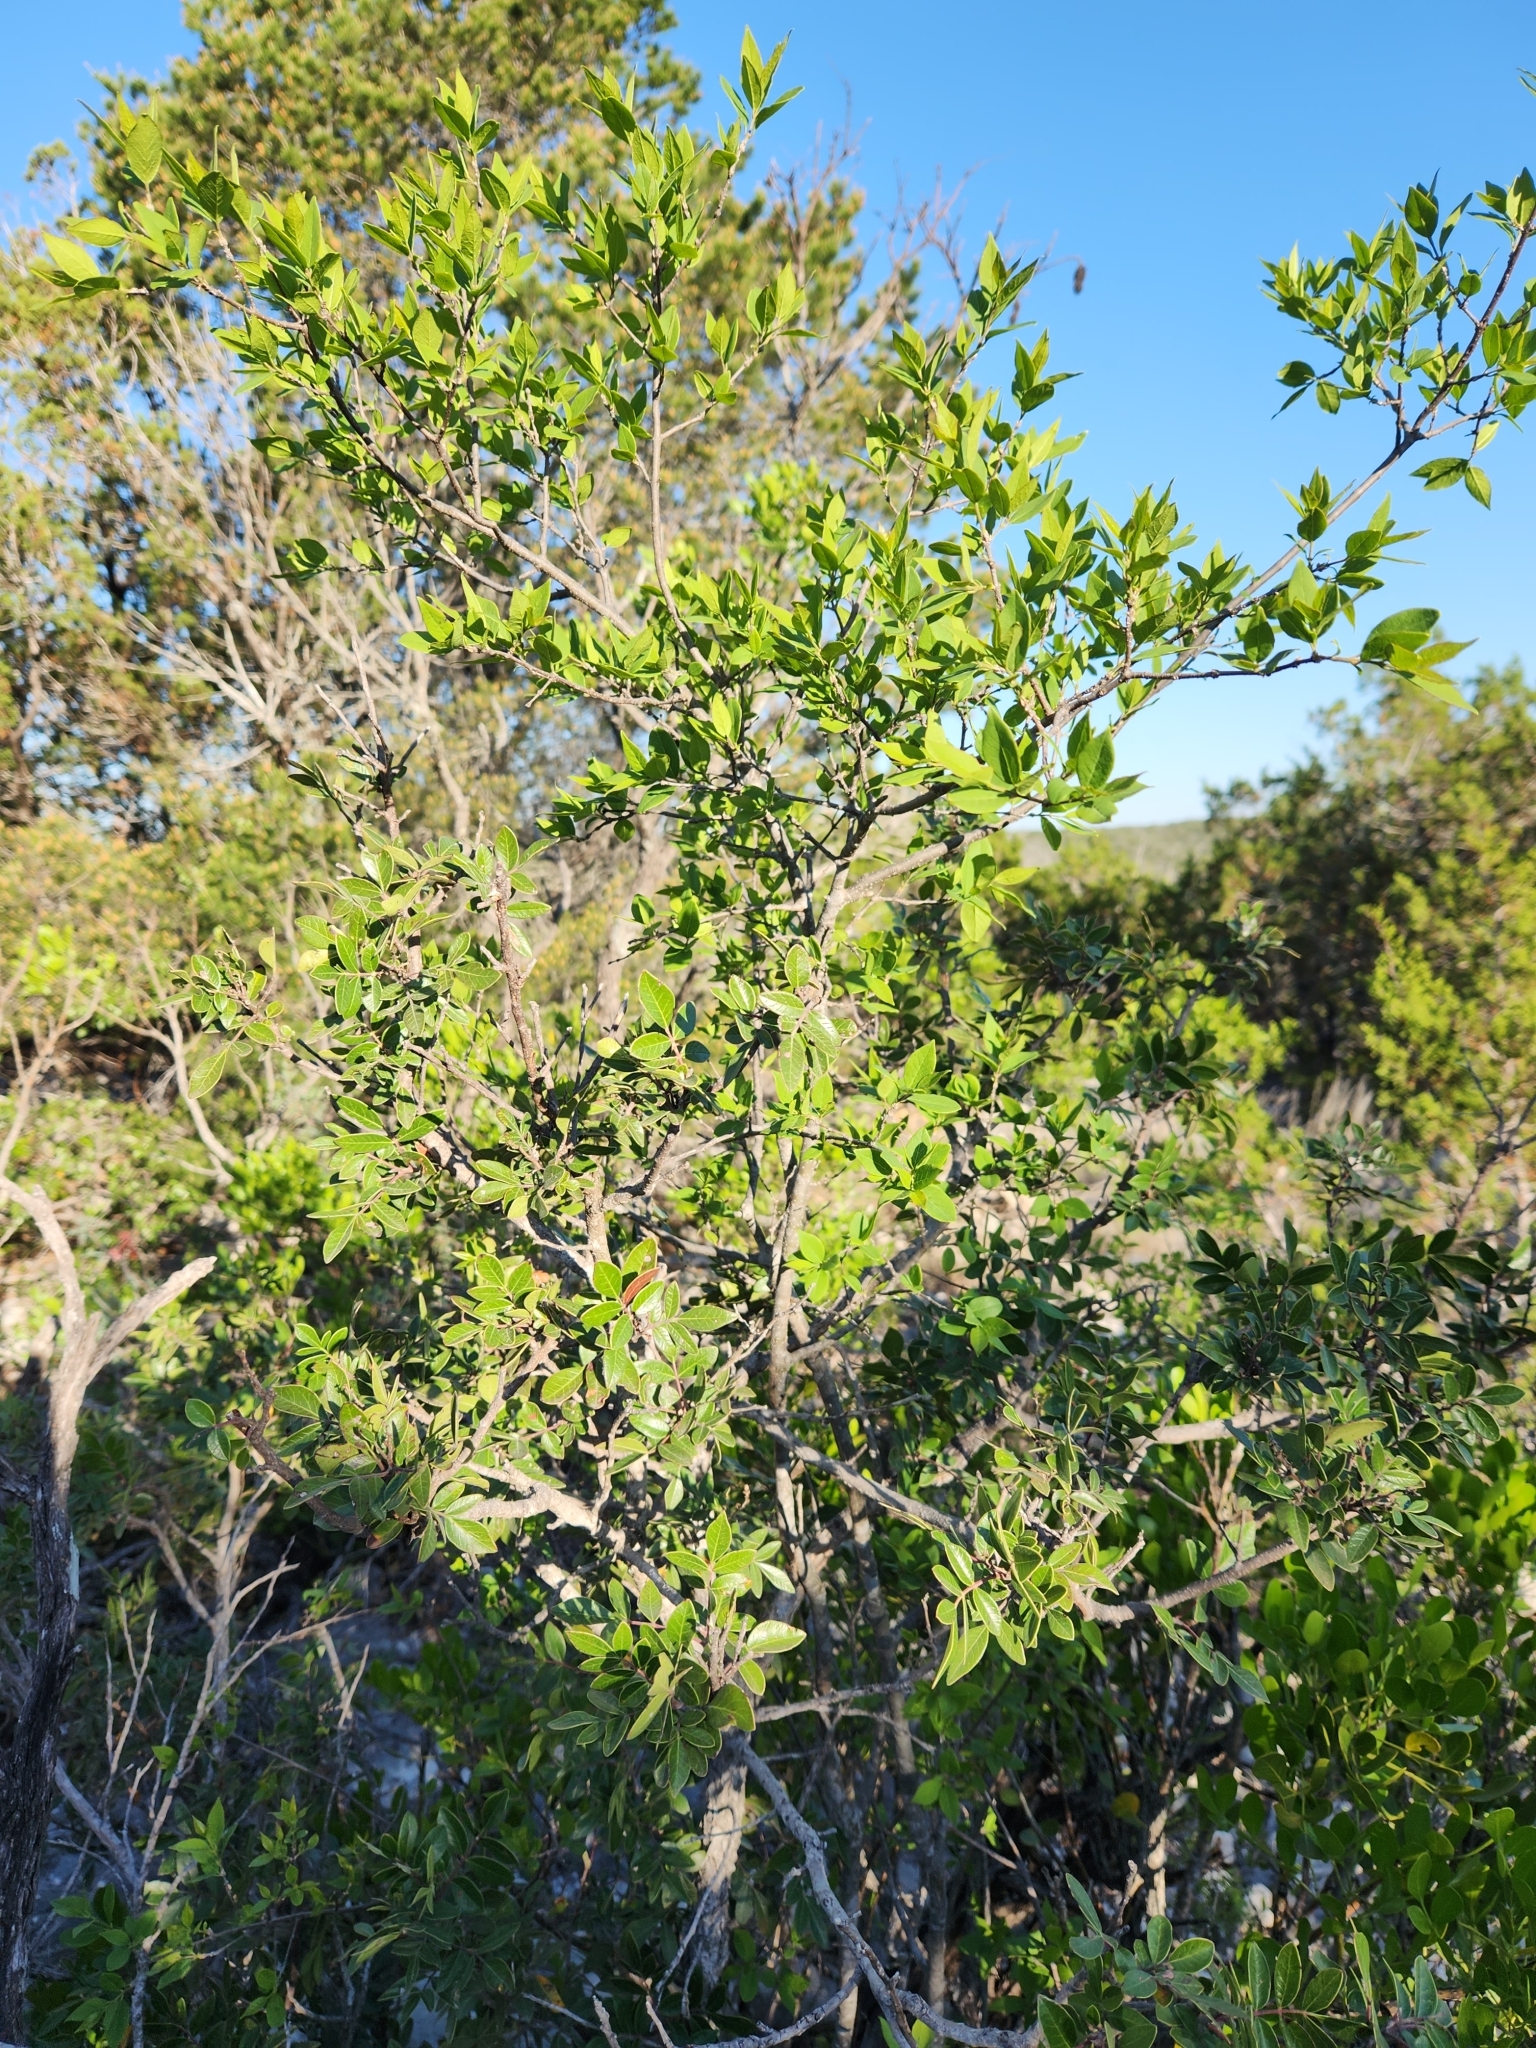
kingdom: Plantae
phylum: Tracheophyta
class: Magnoliopsida
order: Lamiales
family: Oleaceae
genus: Forestiera
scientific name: Forestiera reticulata
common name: Netleaf swamp-privet
